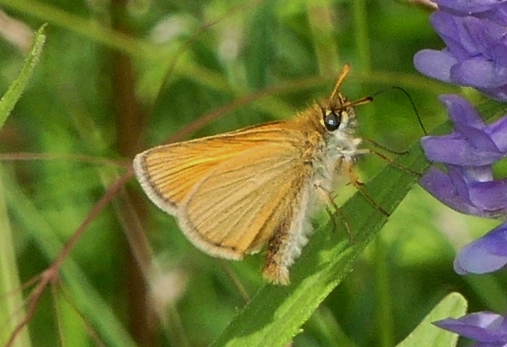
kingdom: Animalia
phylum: Arthropoda
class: Insecta
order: Lepidoptera
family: Hesperiidae
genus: Thymelicus
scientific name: Thymelicus lineola
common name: Essex skipper
